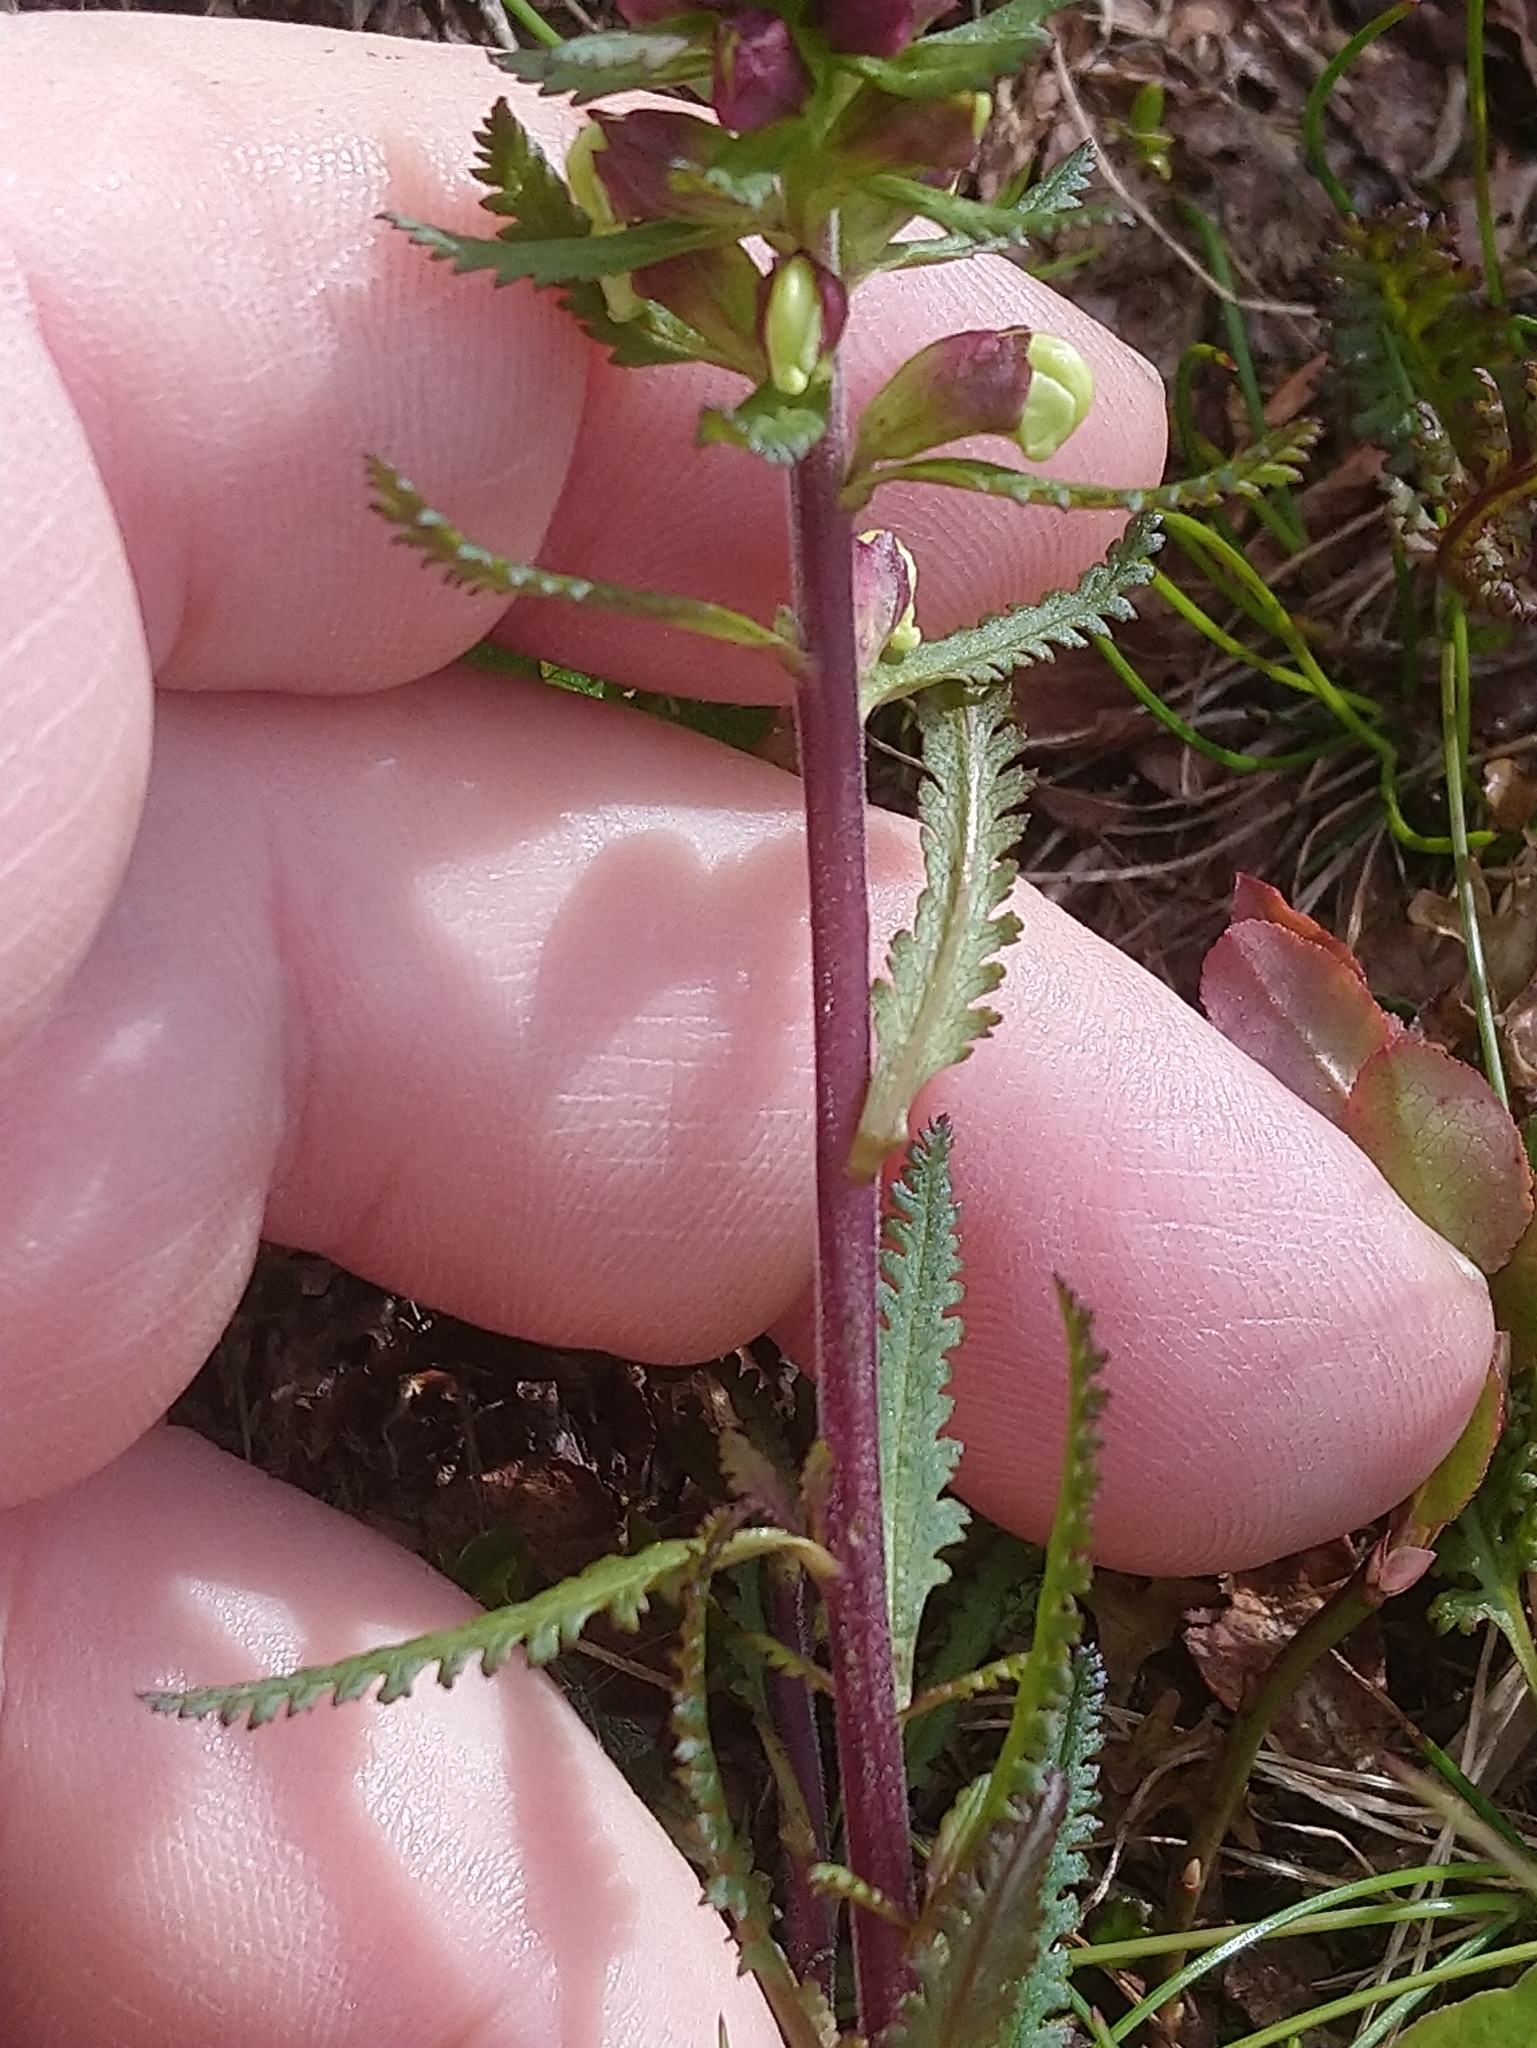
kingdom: Plantae
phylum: Tracheophyta
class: Magnoliopsida
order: Lamiales
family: Orobanchaceae
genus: Pedicularis
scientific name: Pedicularis lapponica
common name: Lapland lousewort
